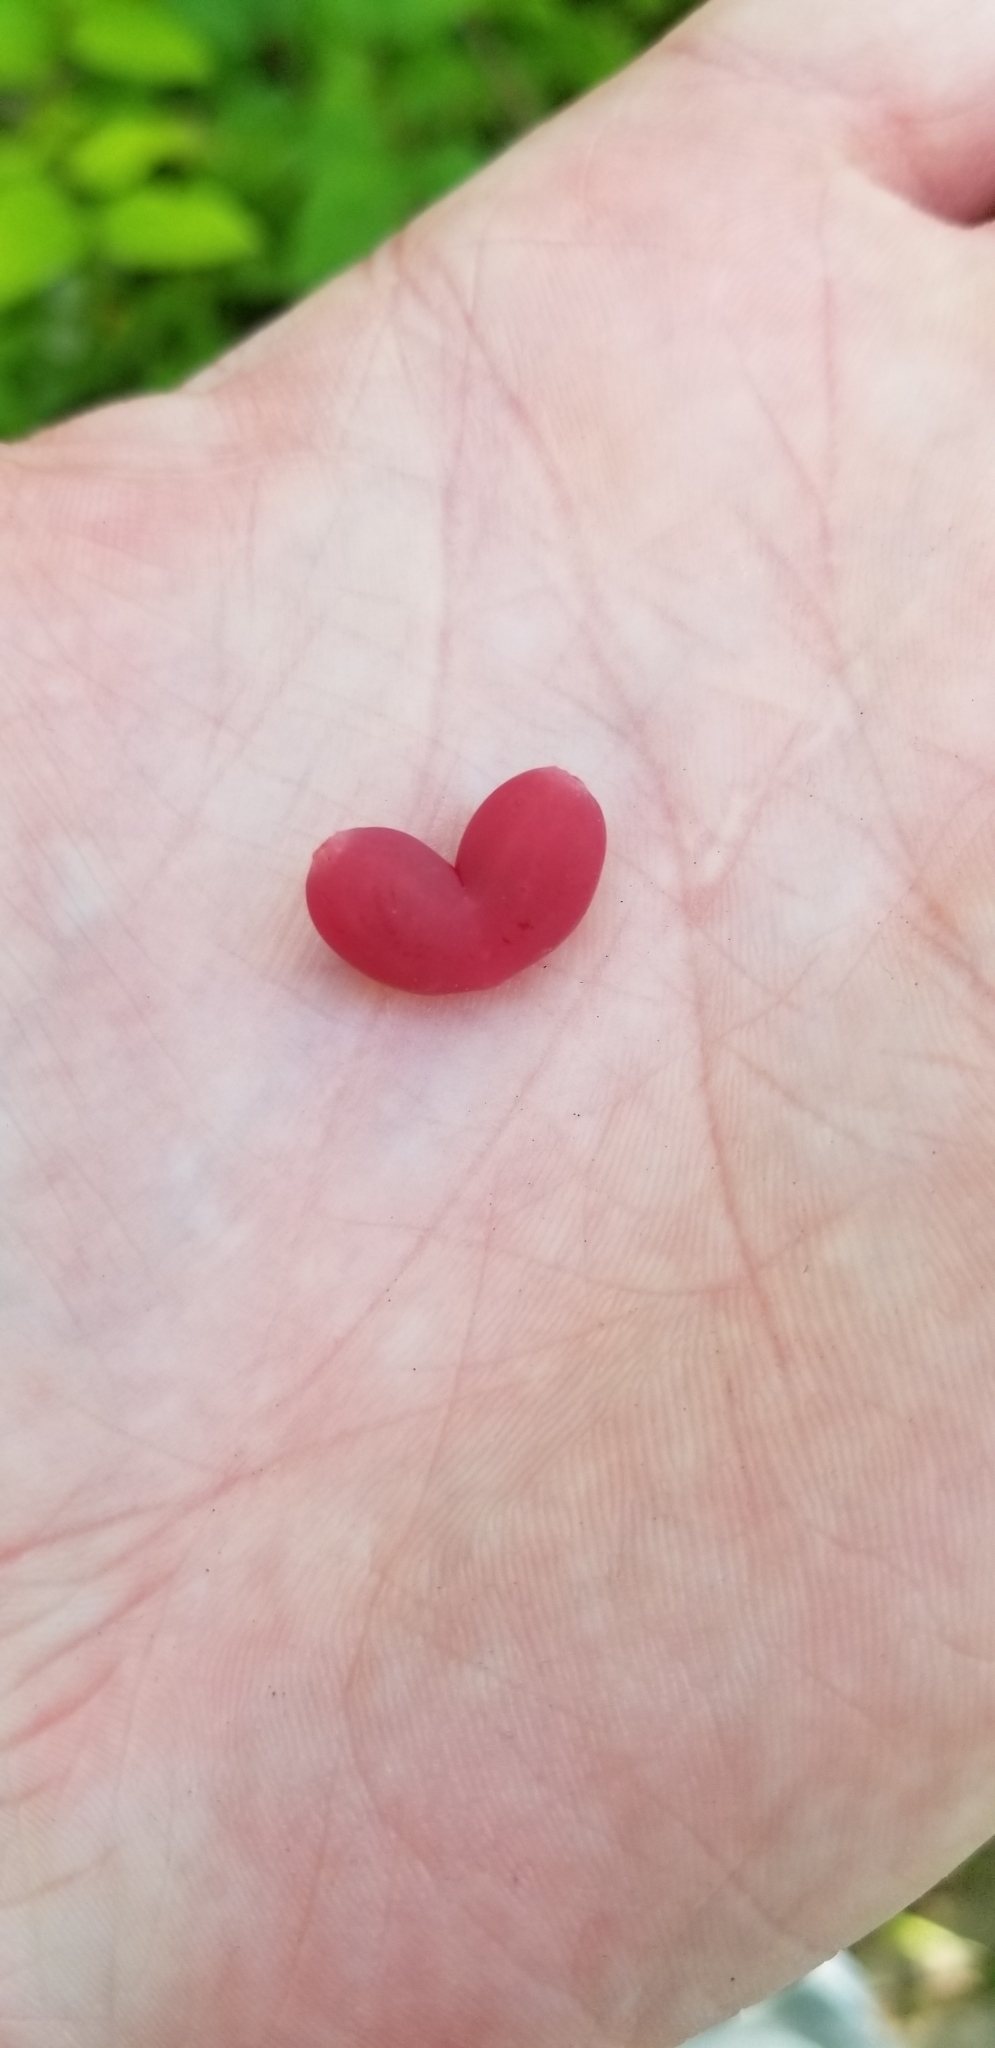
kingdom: Plantae
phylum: Tracheophyta
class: Magnoliopsida
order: Dipsacales
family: Caprifoliaceae
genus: Lonicera
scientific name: Lonicera fragrantissima
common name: Fragrant honeysuckle
